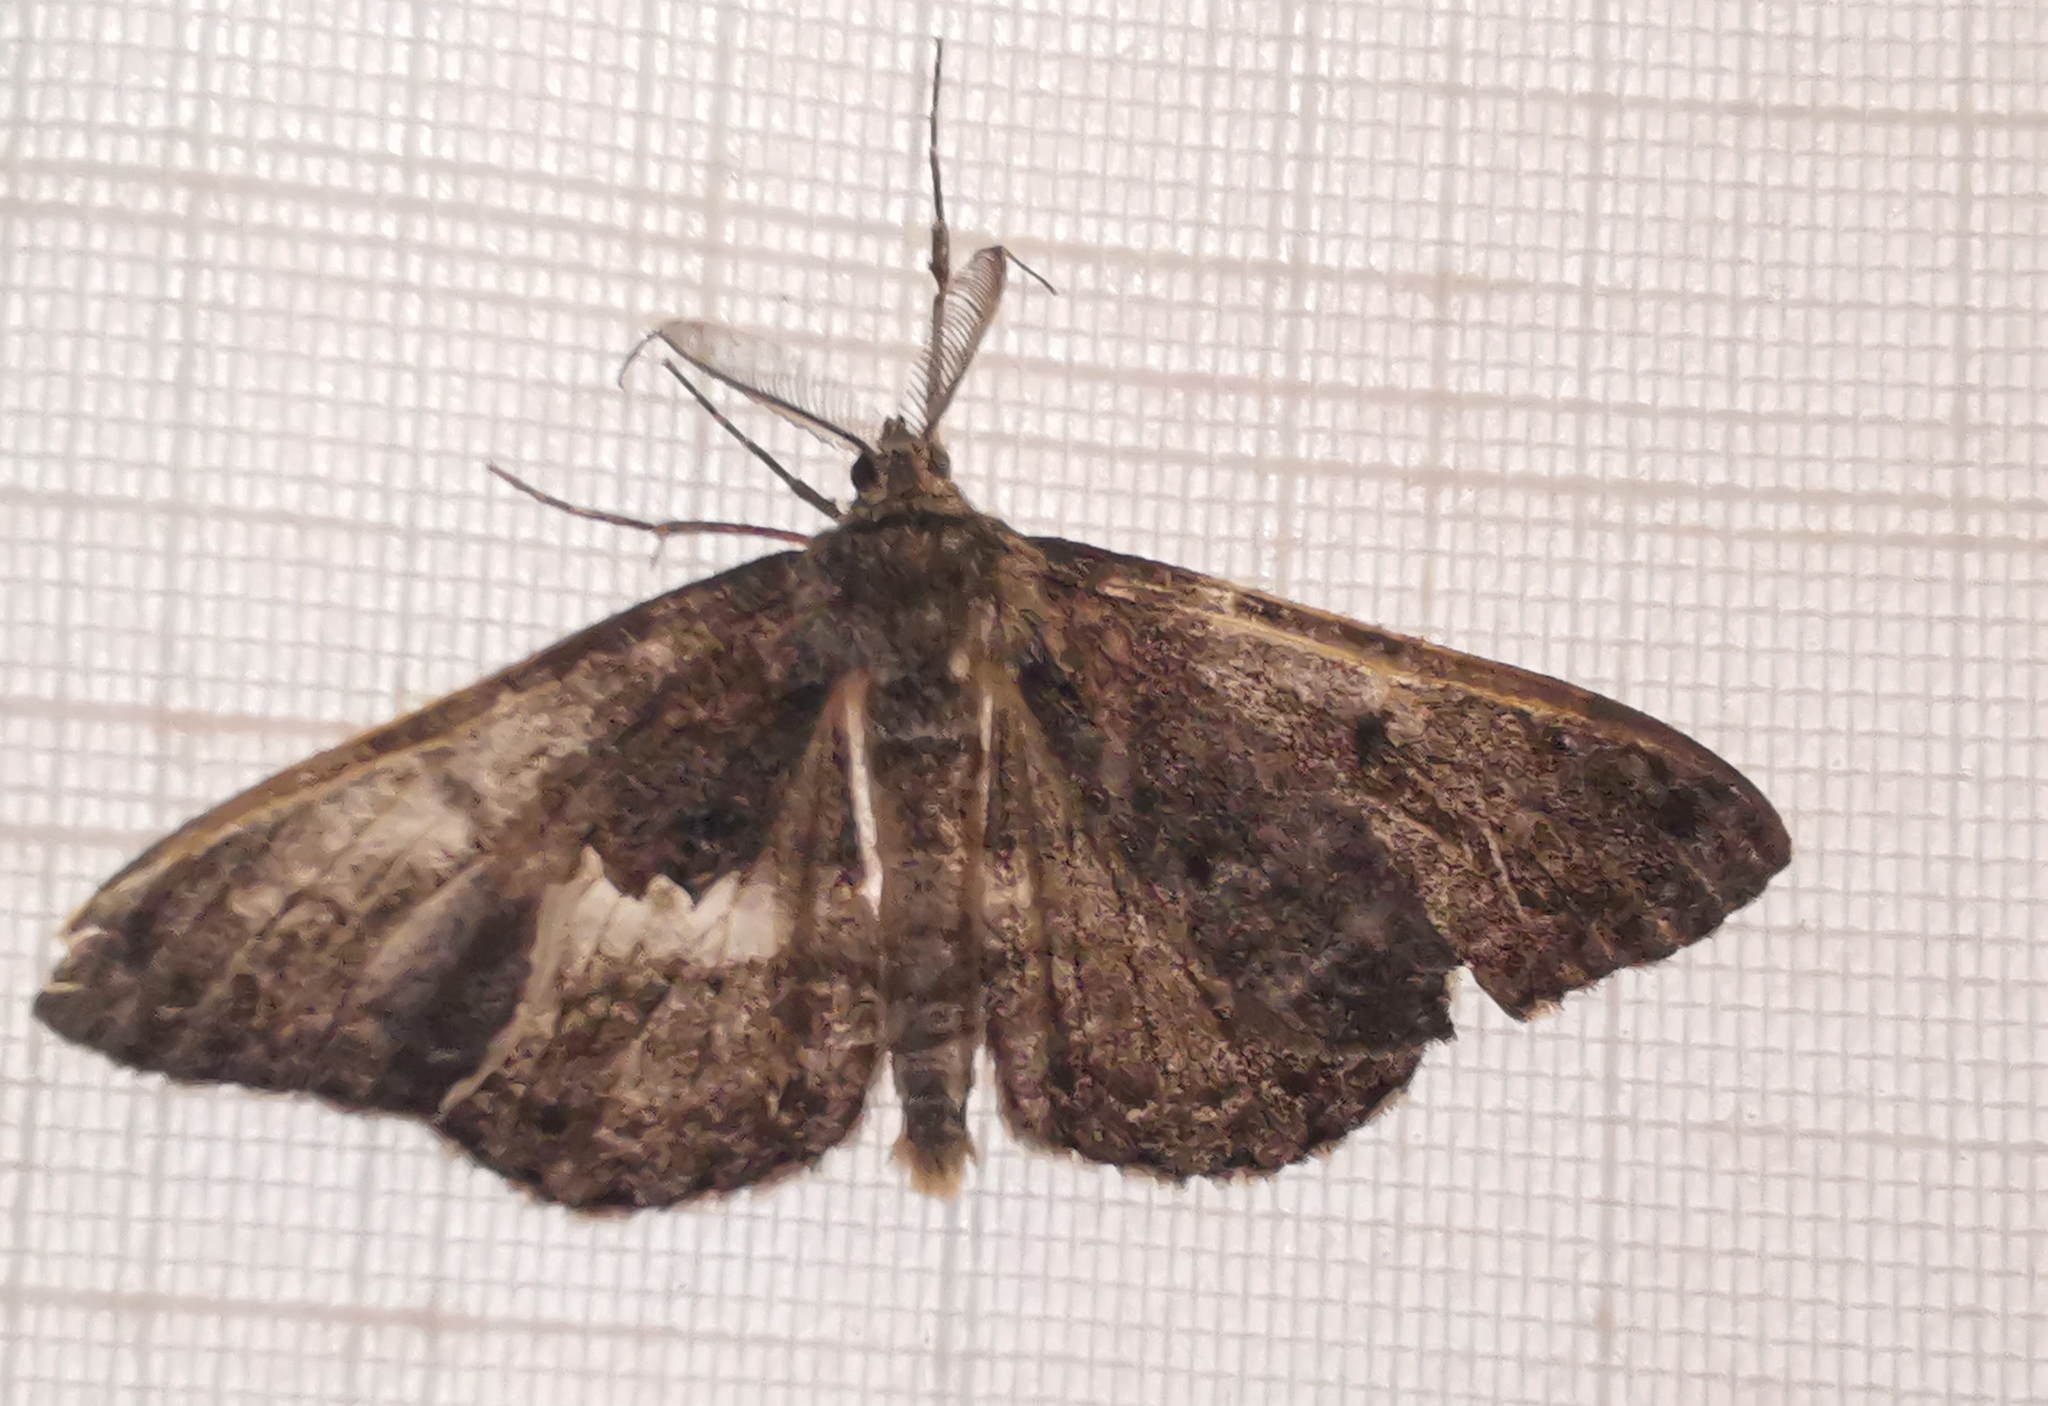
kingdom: Animalia
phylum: Arthropoda
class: Insecta
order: Lepidoptera
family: Geometridae
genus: Hypomecis
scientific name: Hypomecis roboraria
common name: Great oak beauty
